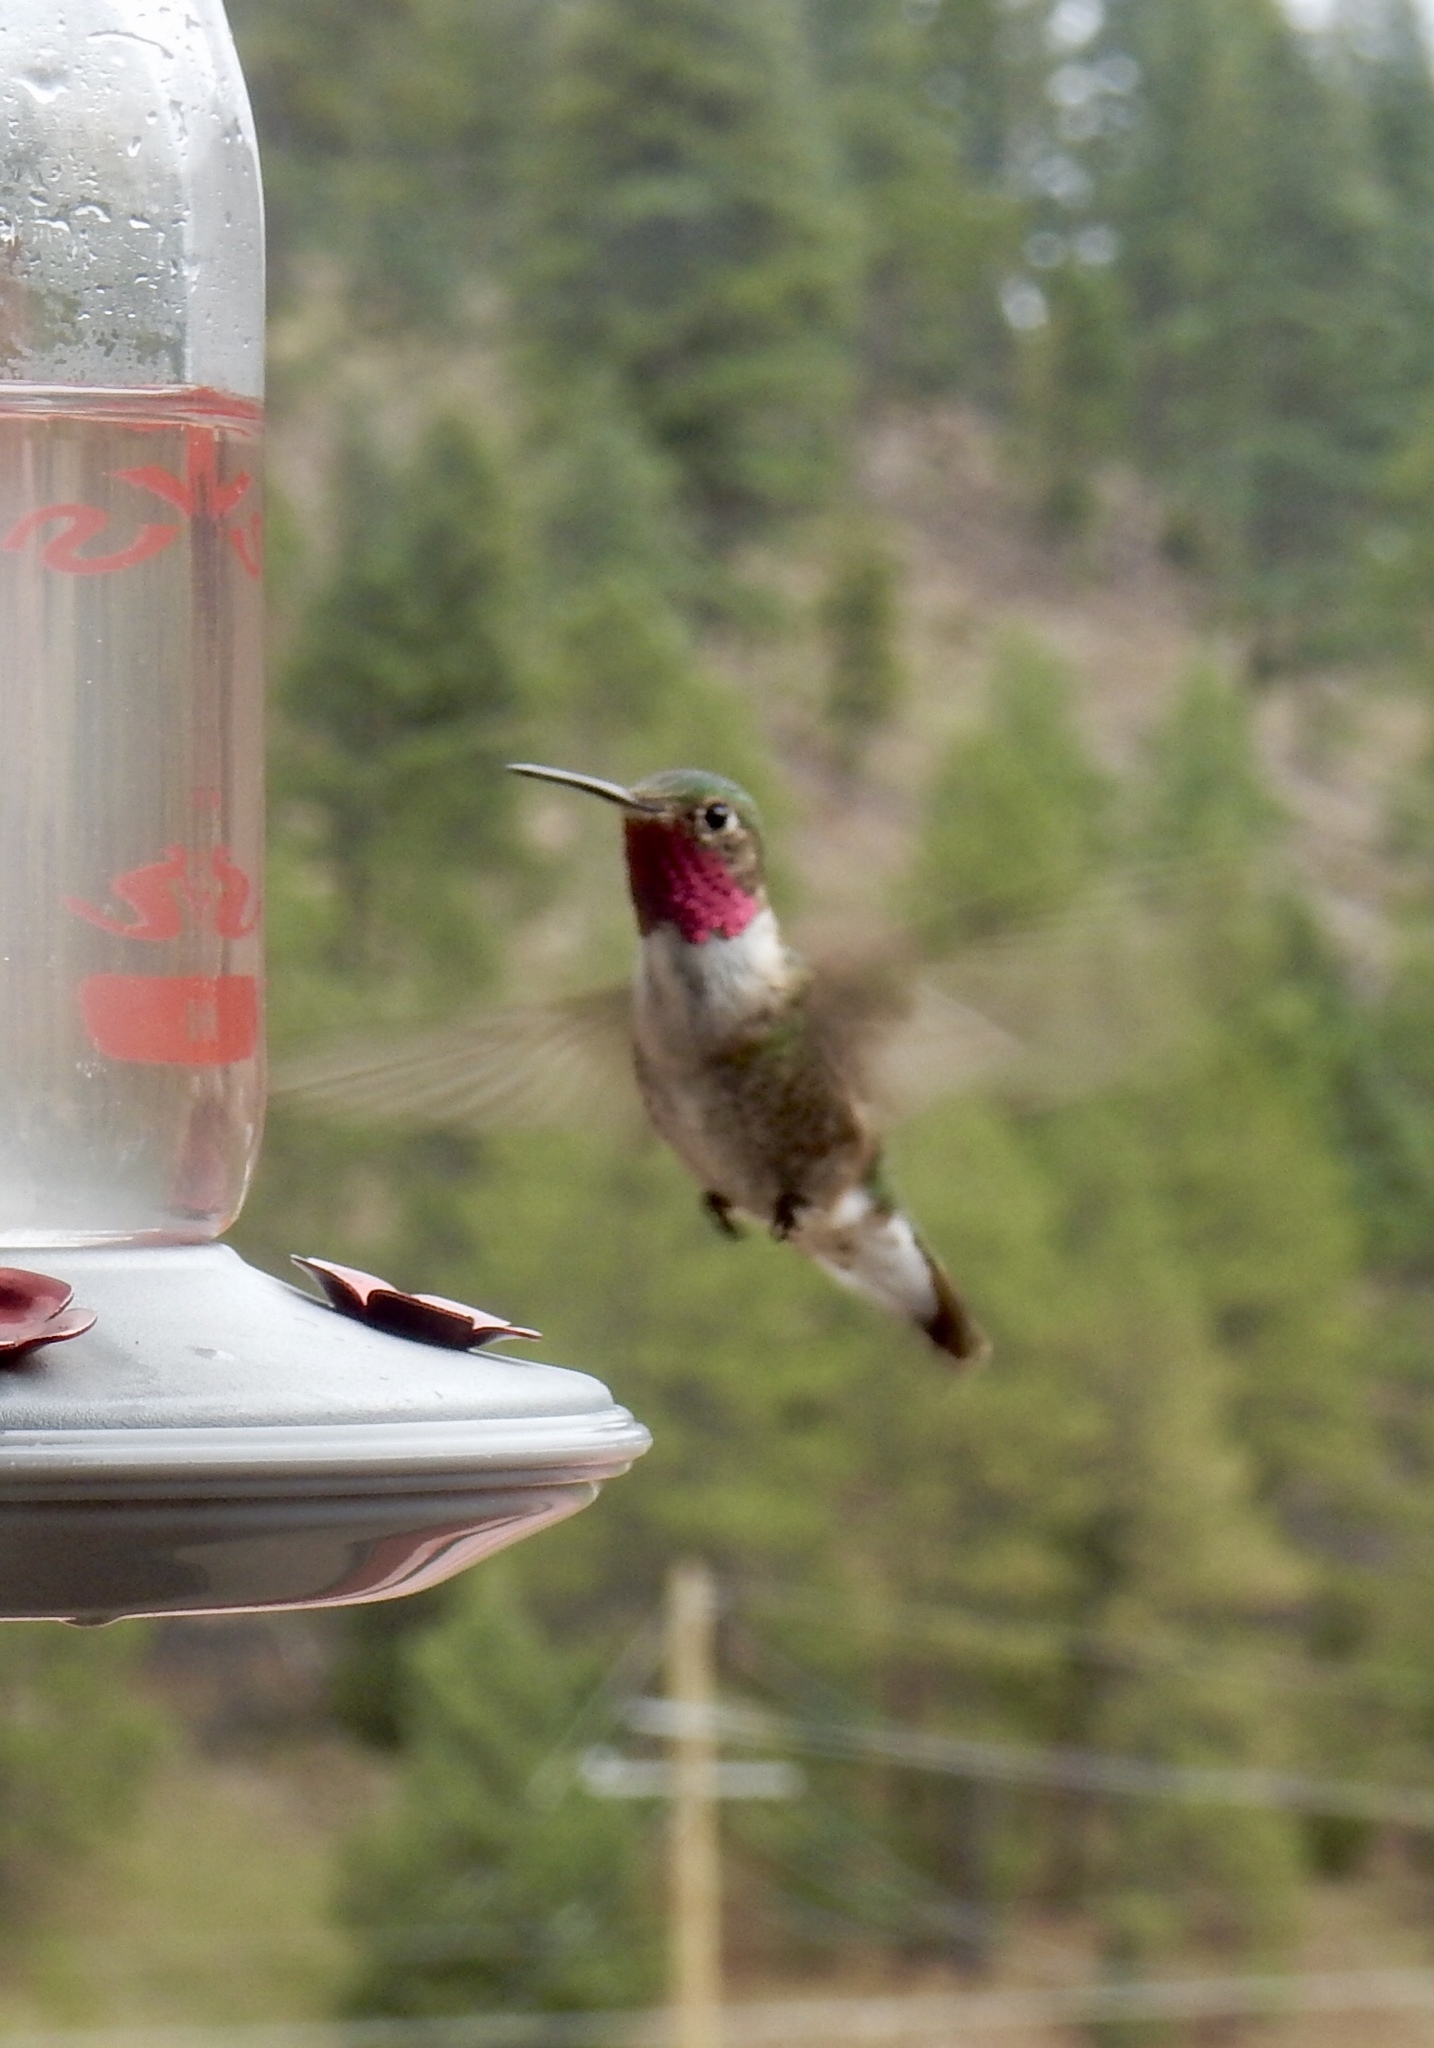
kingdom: Animalia
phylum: Chordata
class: Aves
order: Apodiformes
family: Trochilidae
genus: Selasphorus
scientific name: Selasphorus platycercus
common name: Broad-tailed hummingbird
